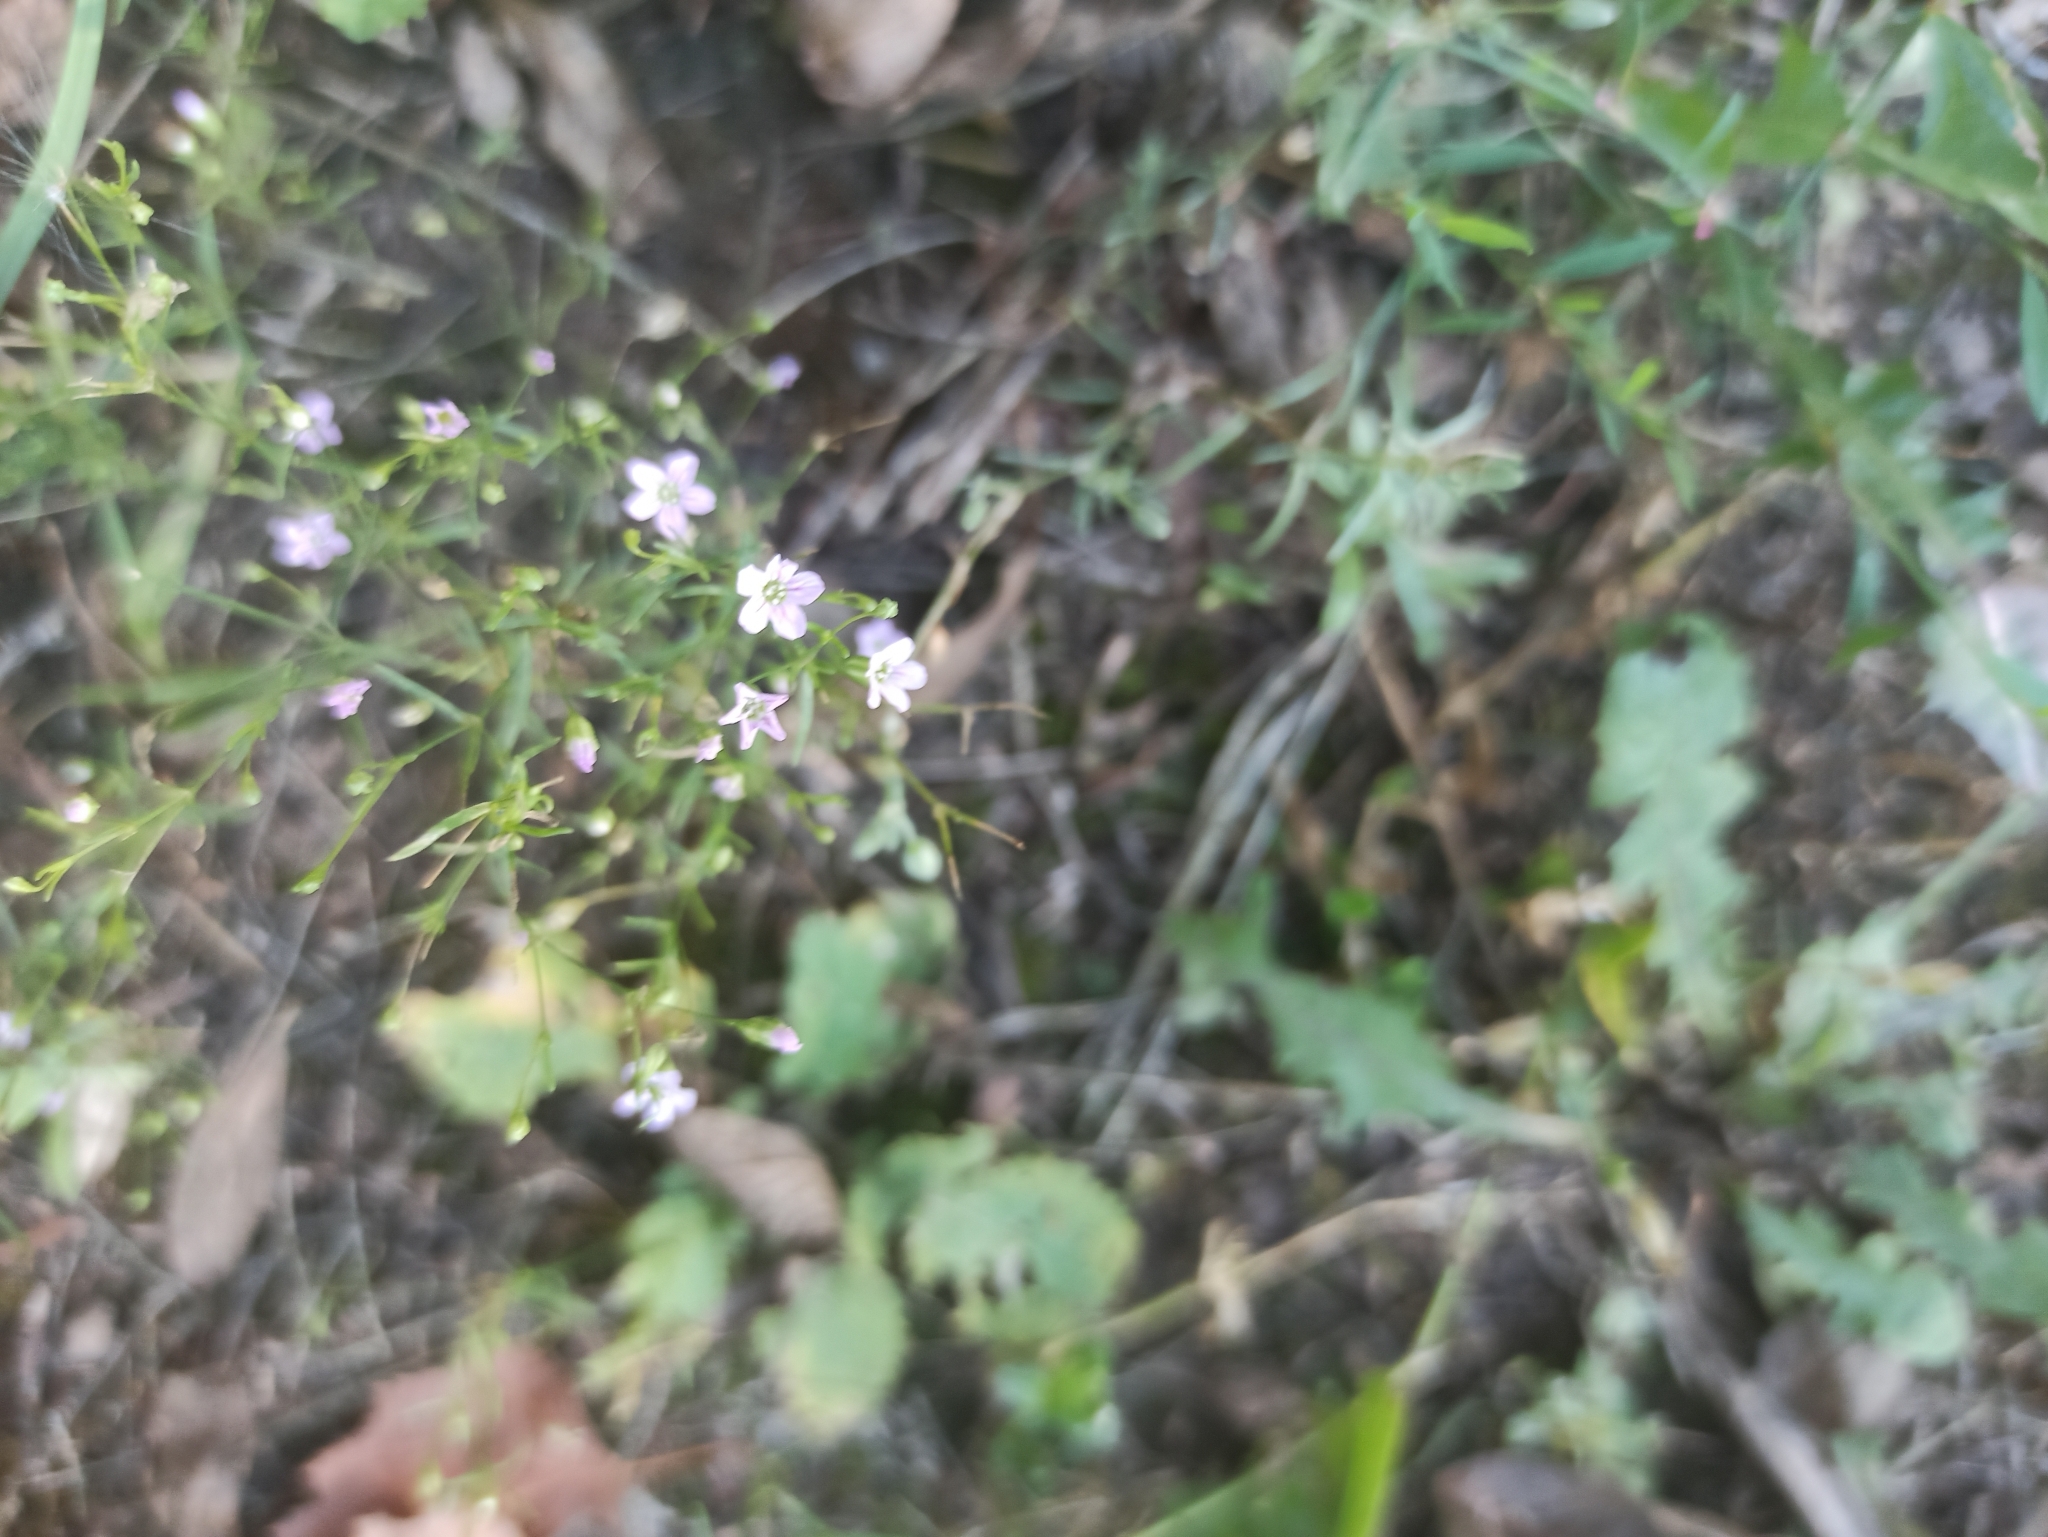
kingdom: Plantae
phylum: Tracheophyta
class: Magnoliopsida
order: Caryophyllales
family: Caryophyllaceae
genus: Psammophiliella
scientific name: Psammophiliella muralis
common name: Cushion baby's-breath
